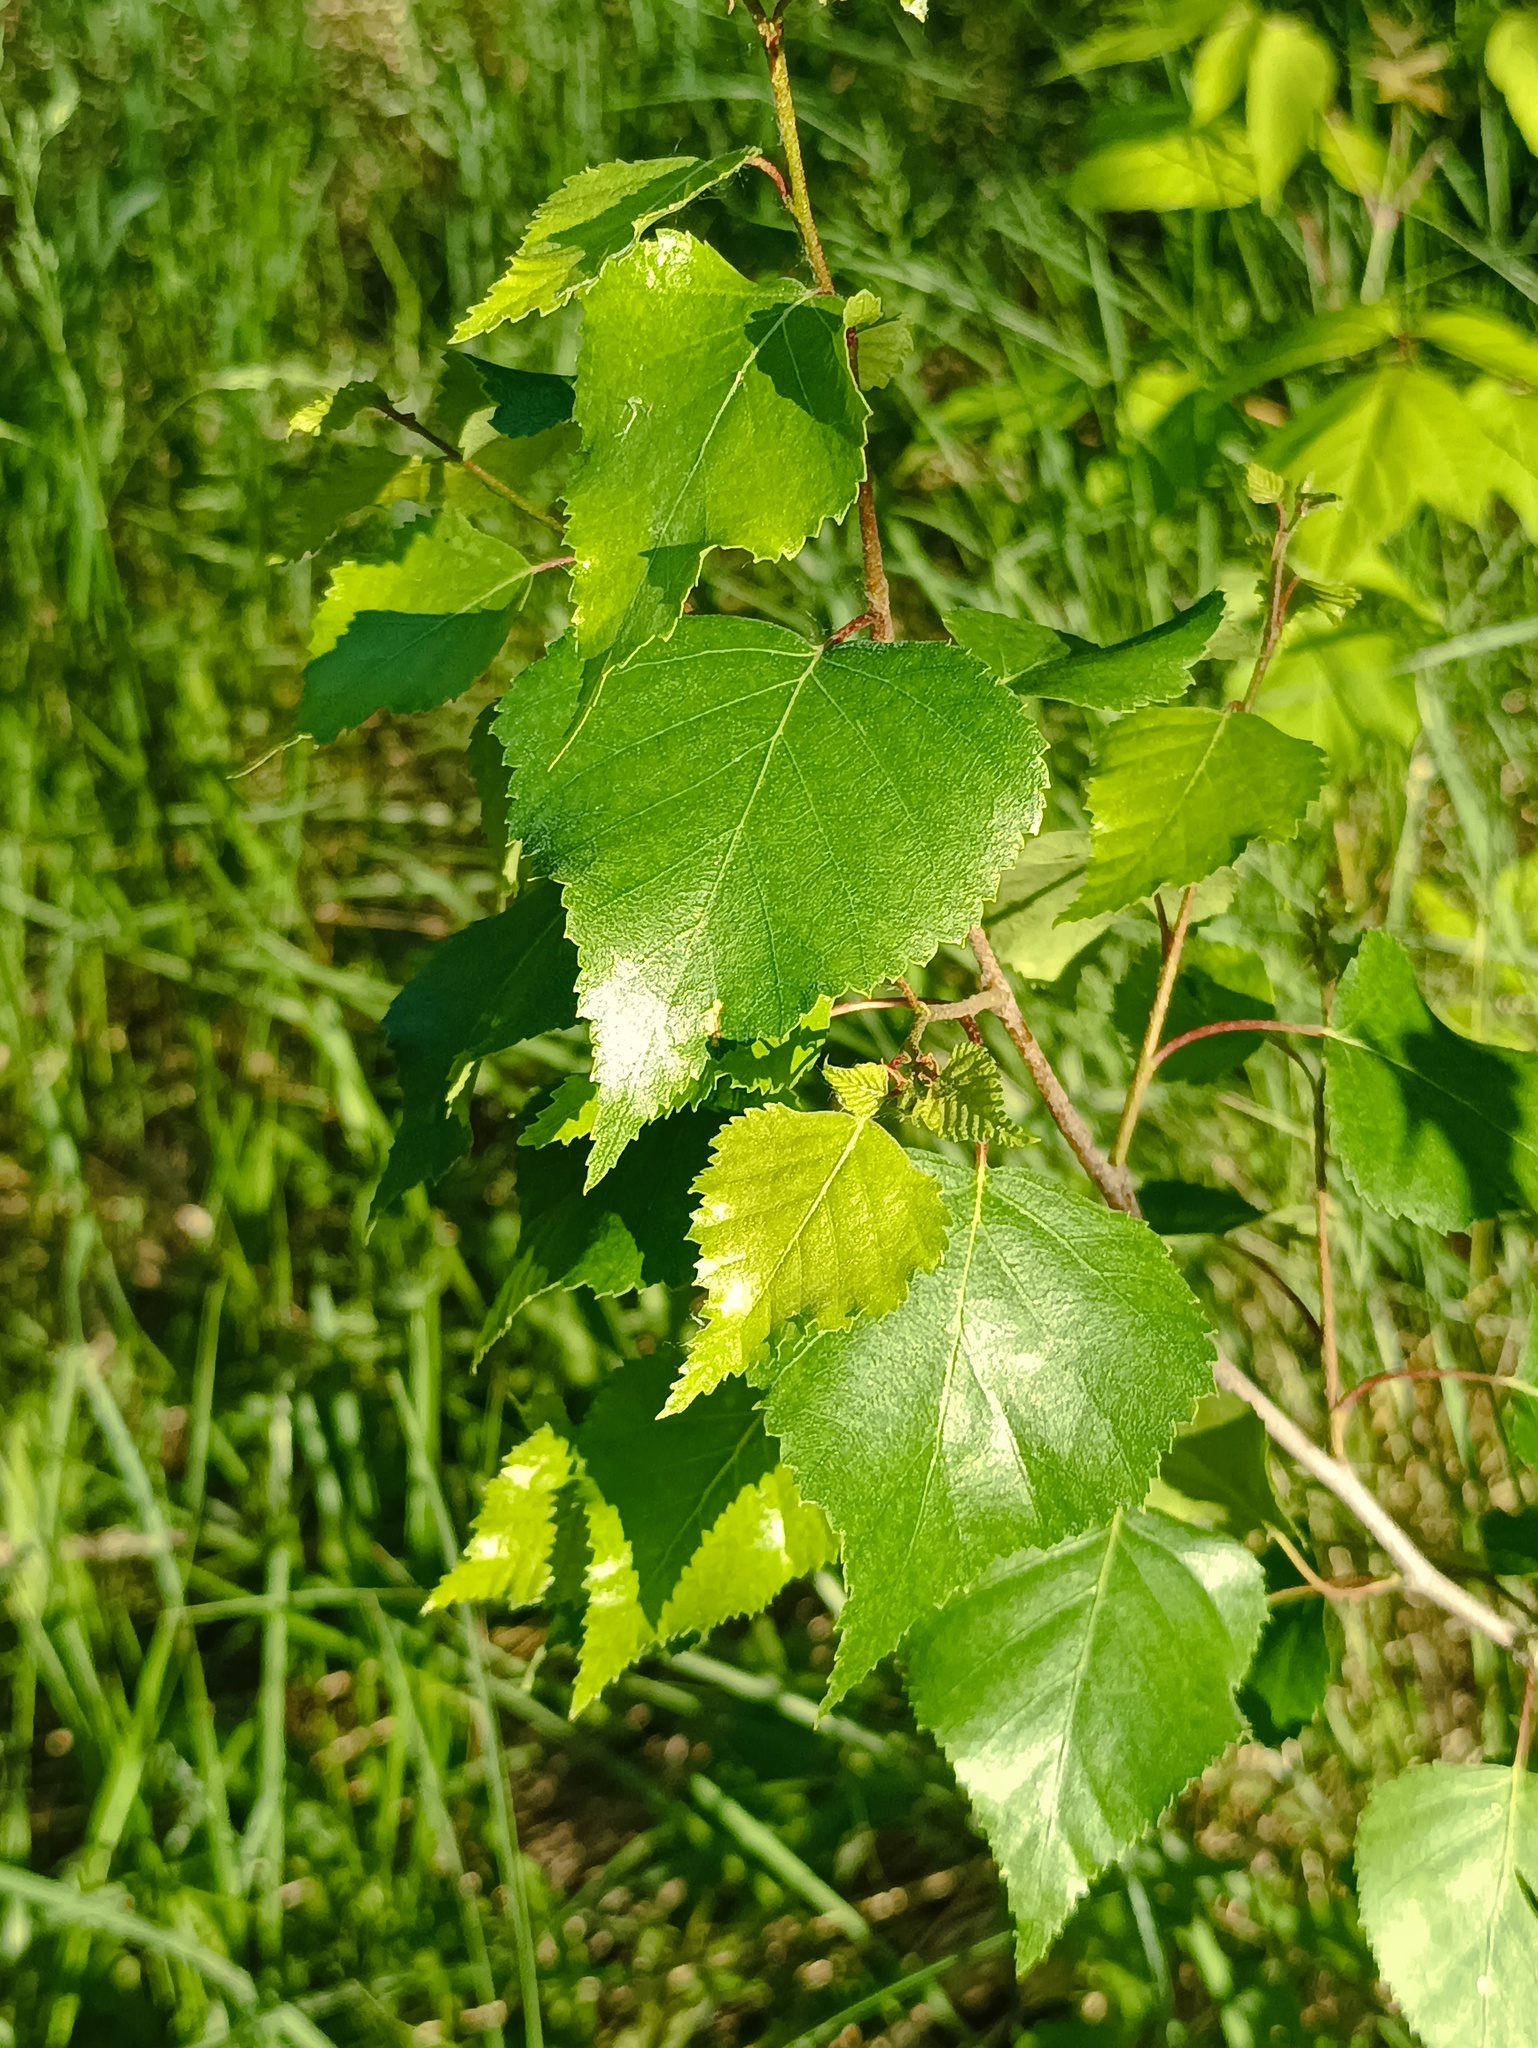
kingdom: Plantae
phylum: Tracheophyta
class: Magnoliopsida
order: Fagales
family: Betulaceae
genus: Betula
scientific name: Betula pendula
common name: Silver birch
